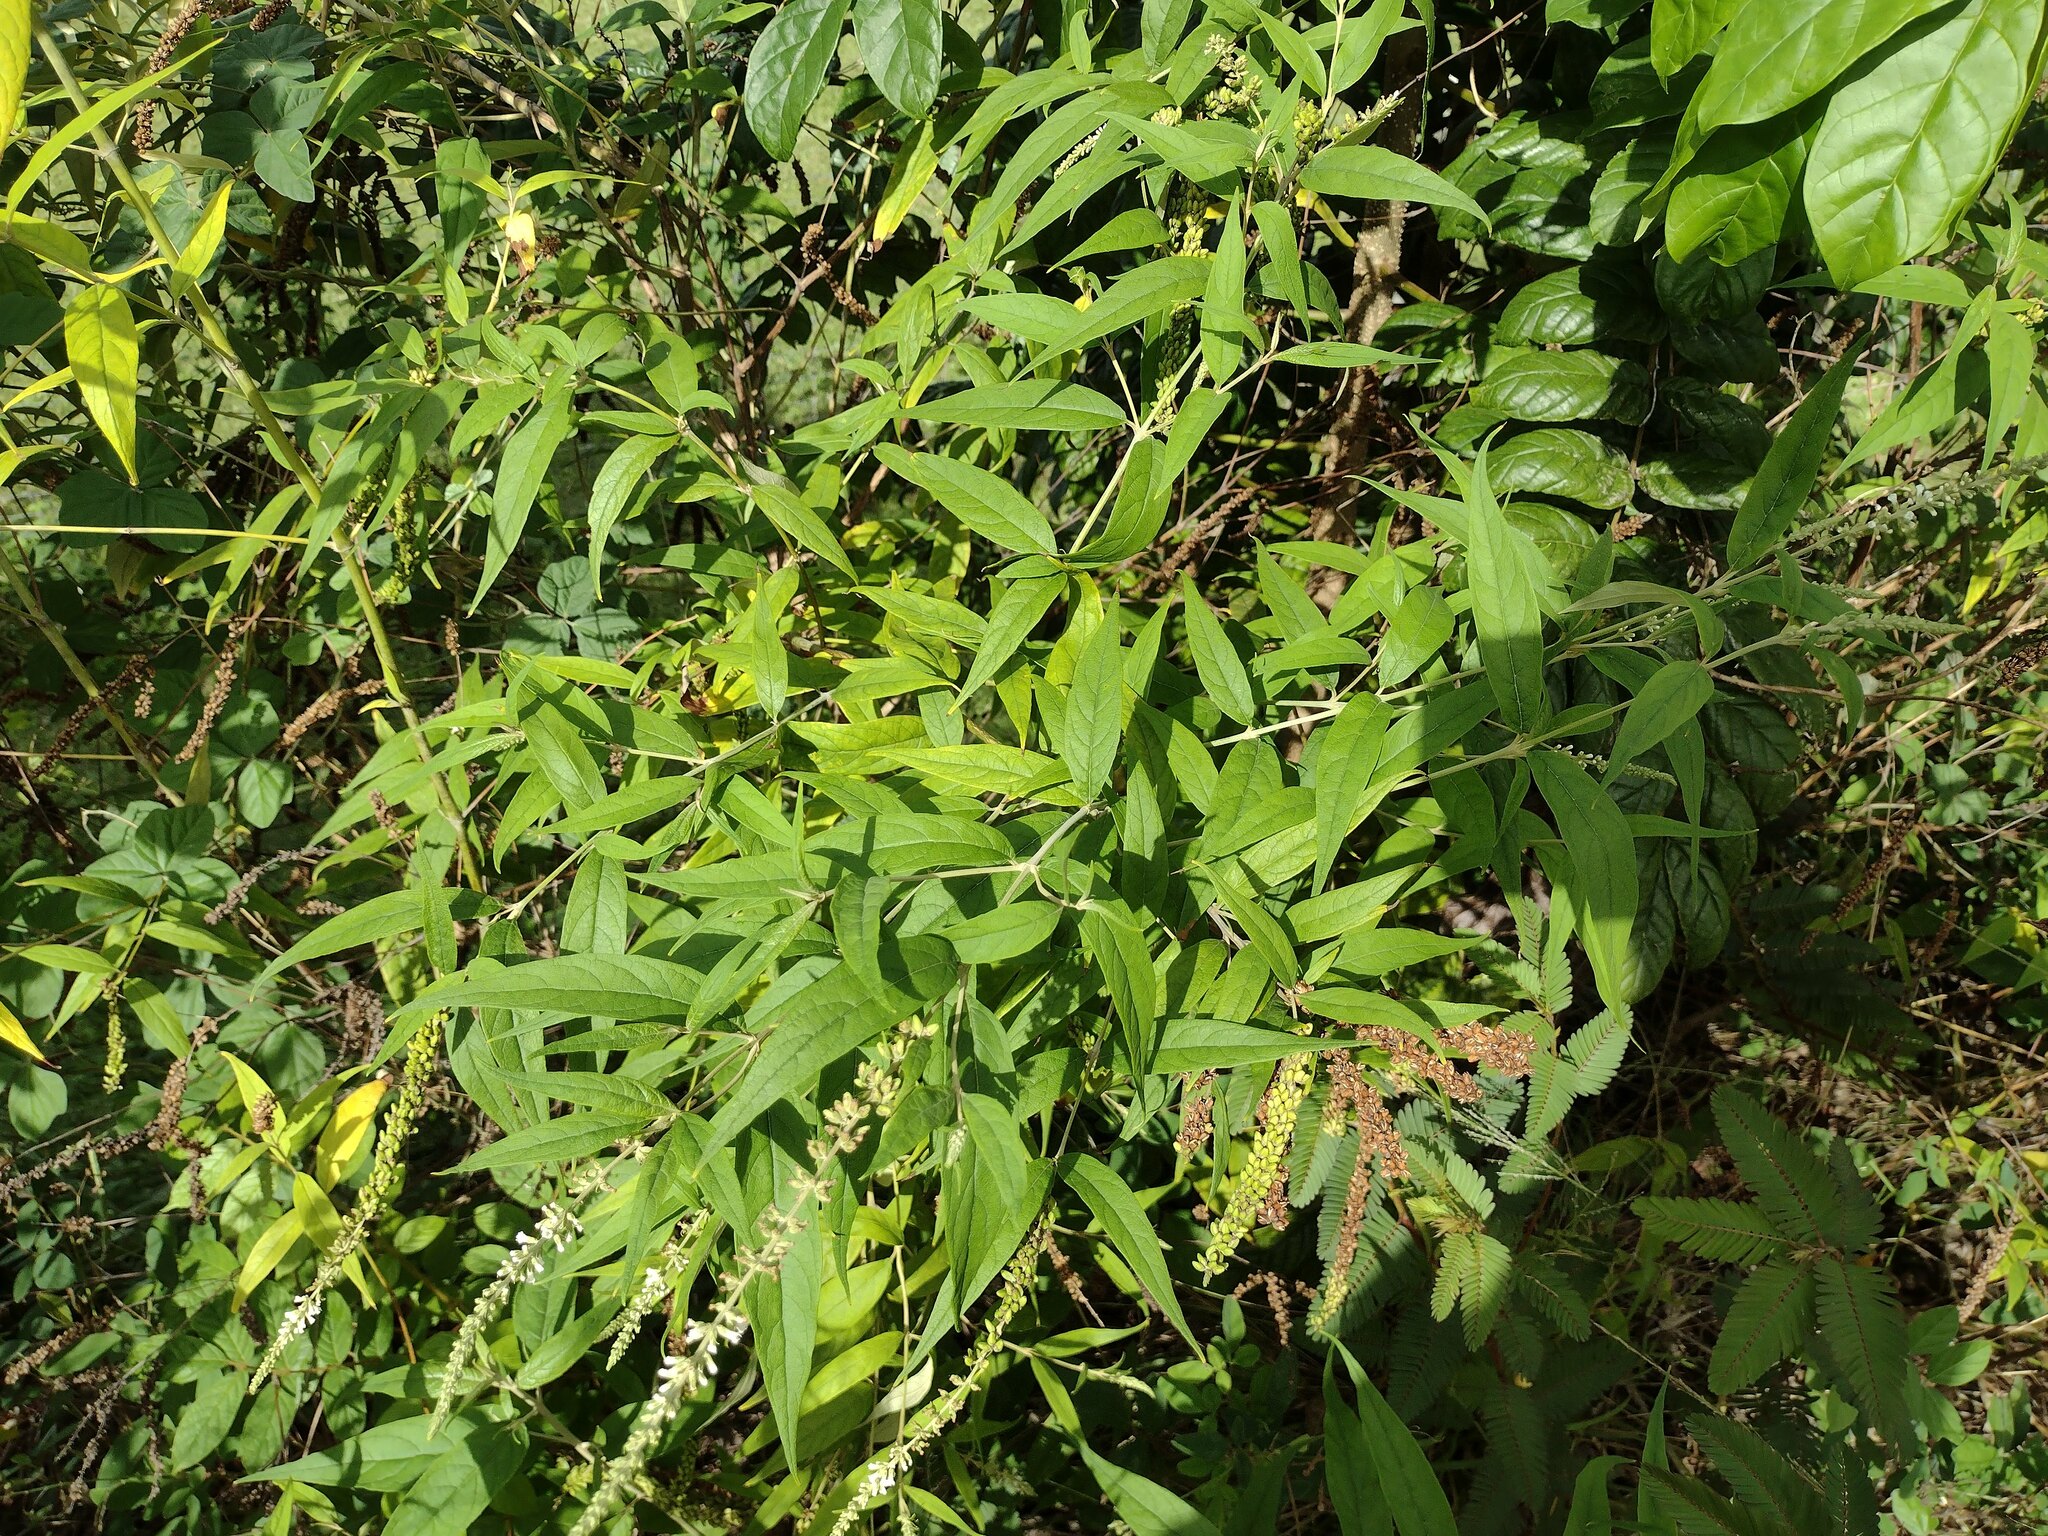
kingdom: Plantae
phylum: Tracheophyta
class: Magnoliopsida
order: Lamiales
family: Scrophulariaceae
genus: Buddleja
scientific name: Buddleja asiatica
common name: Dog tail
